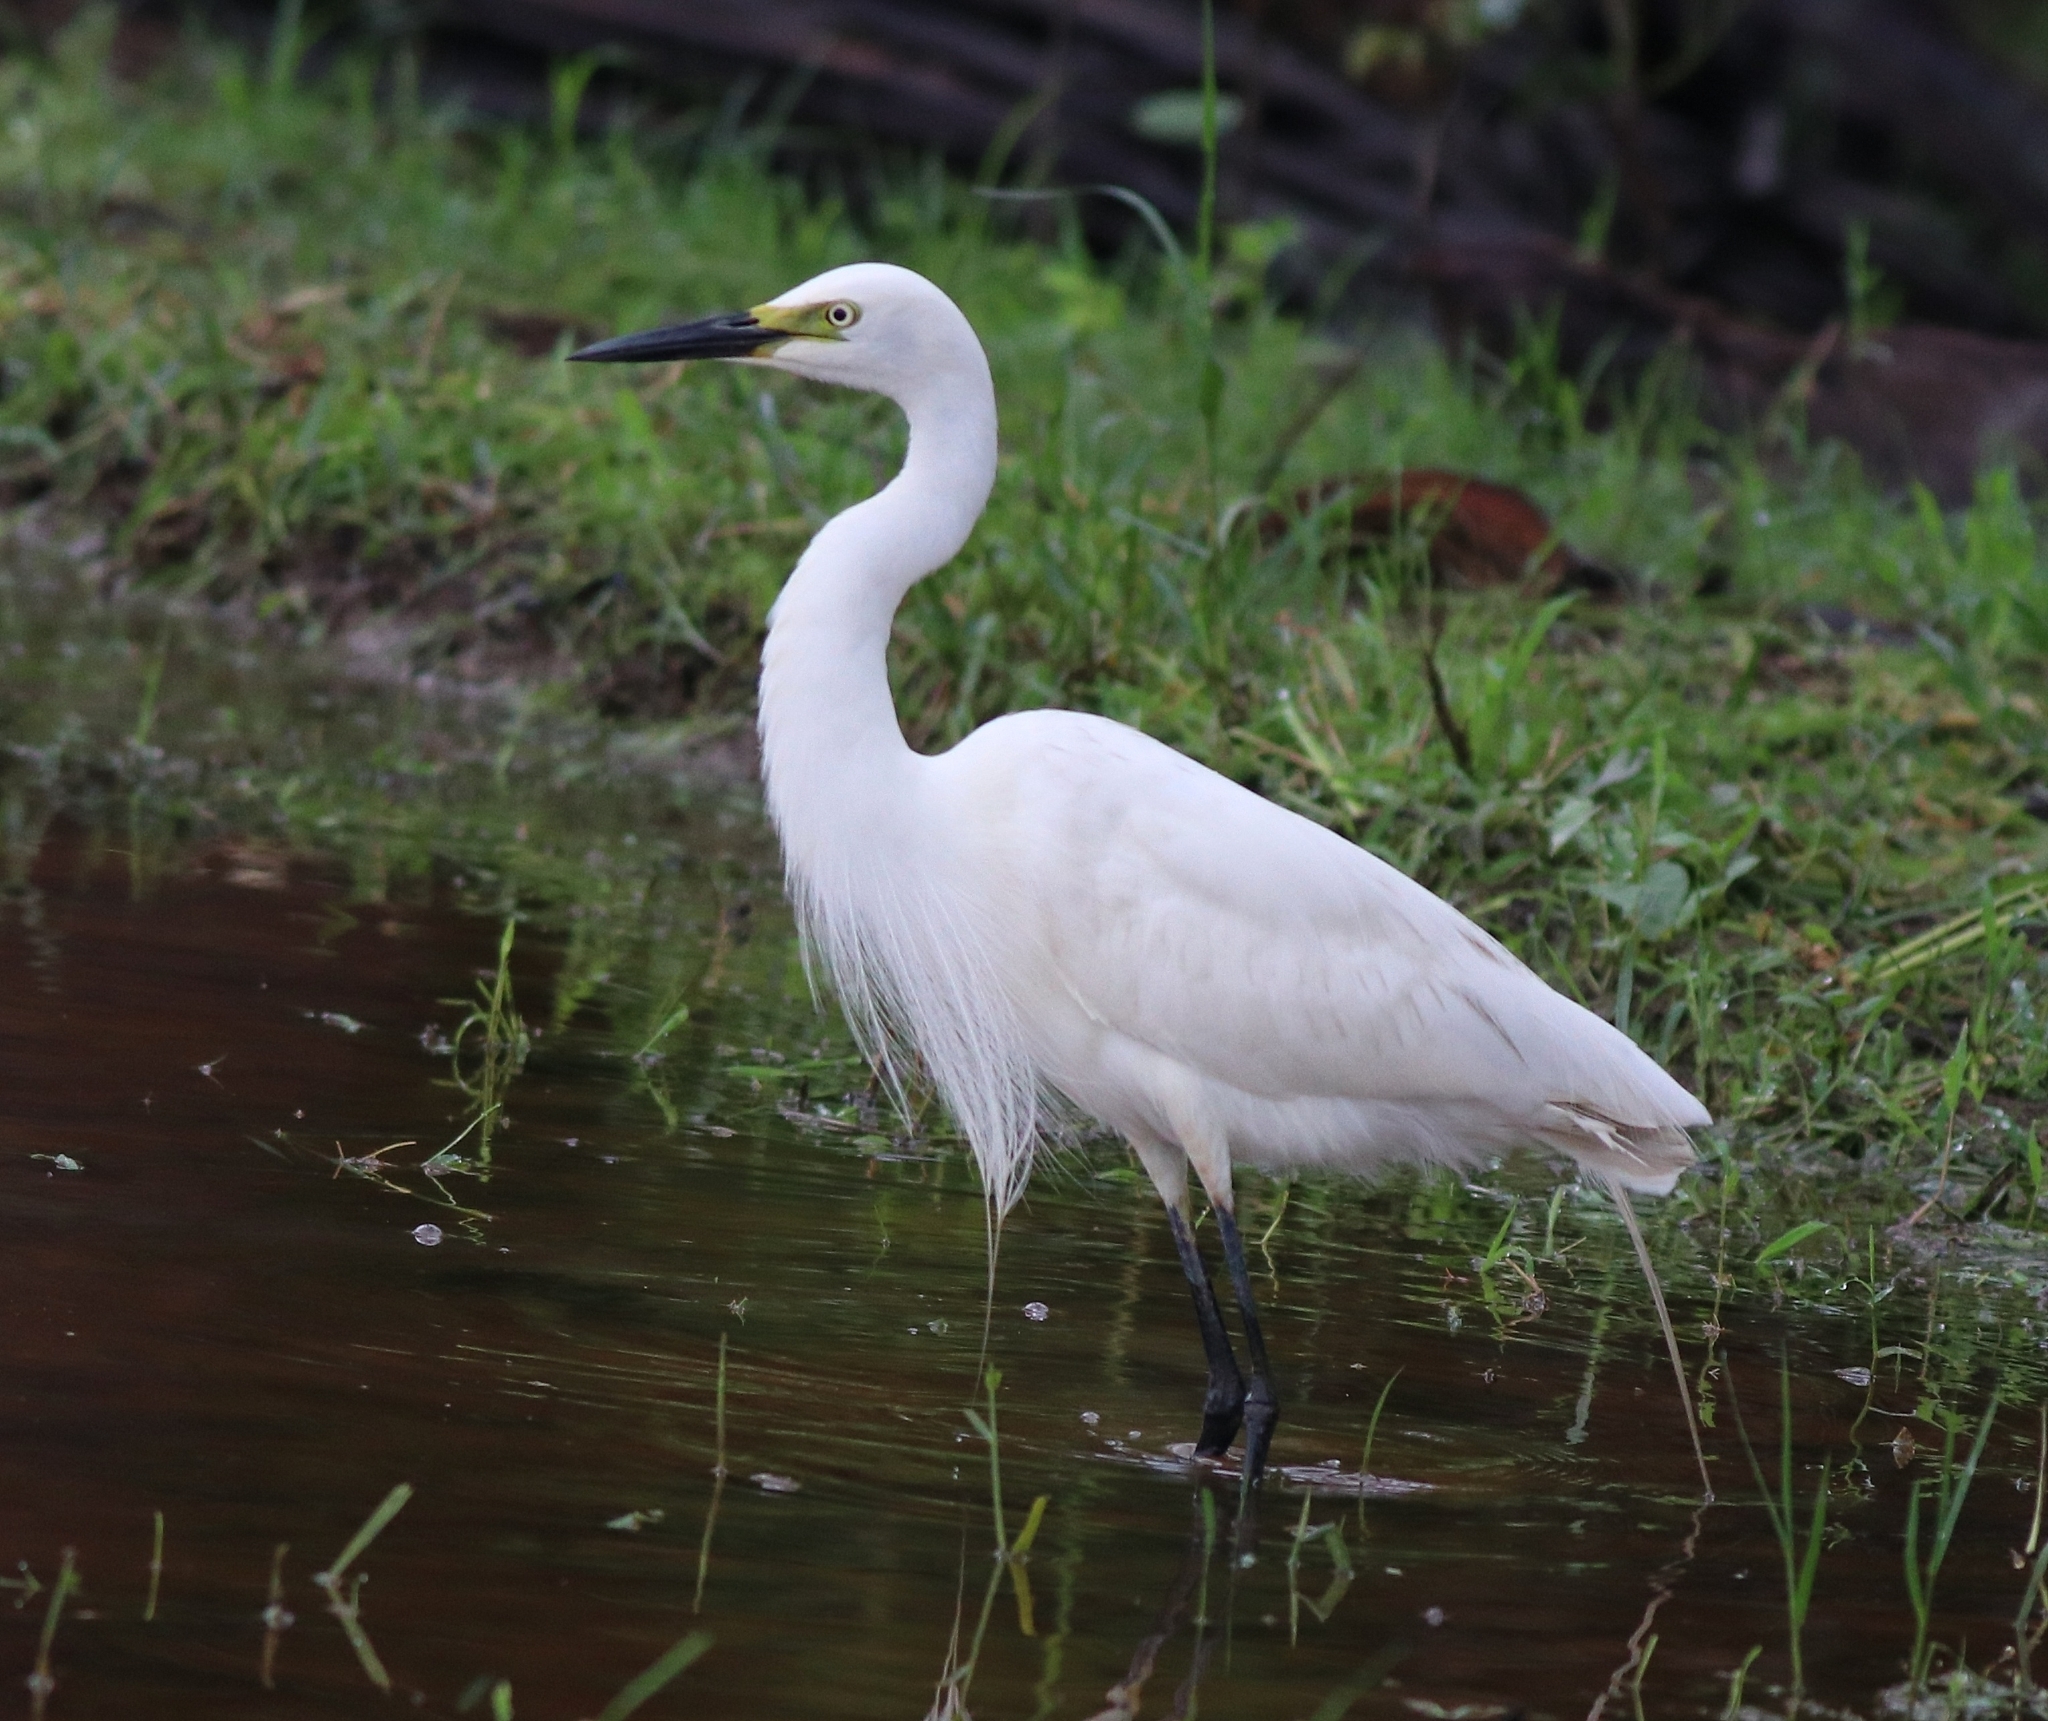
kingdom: Animalia
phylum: Chordata
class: Aves
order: Pelecaniformes
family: Ardeidae
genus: Egretta
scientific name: Egretta intermedia
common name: Intermediate egret
